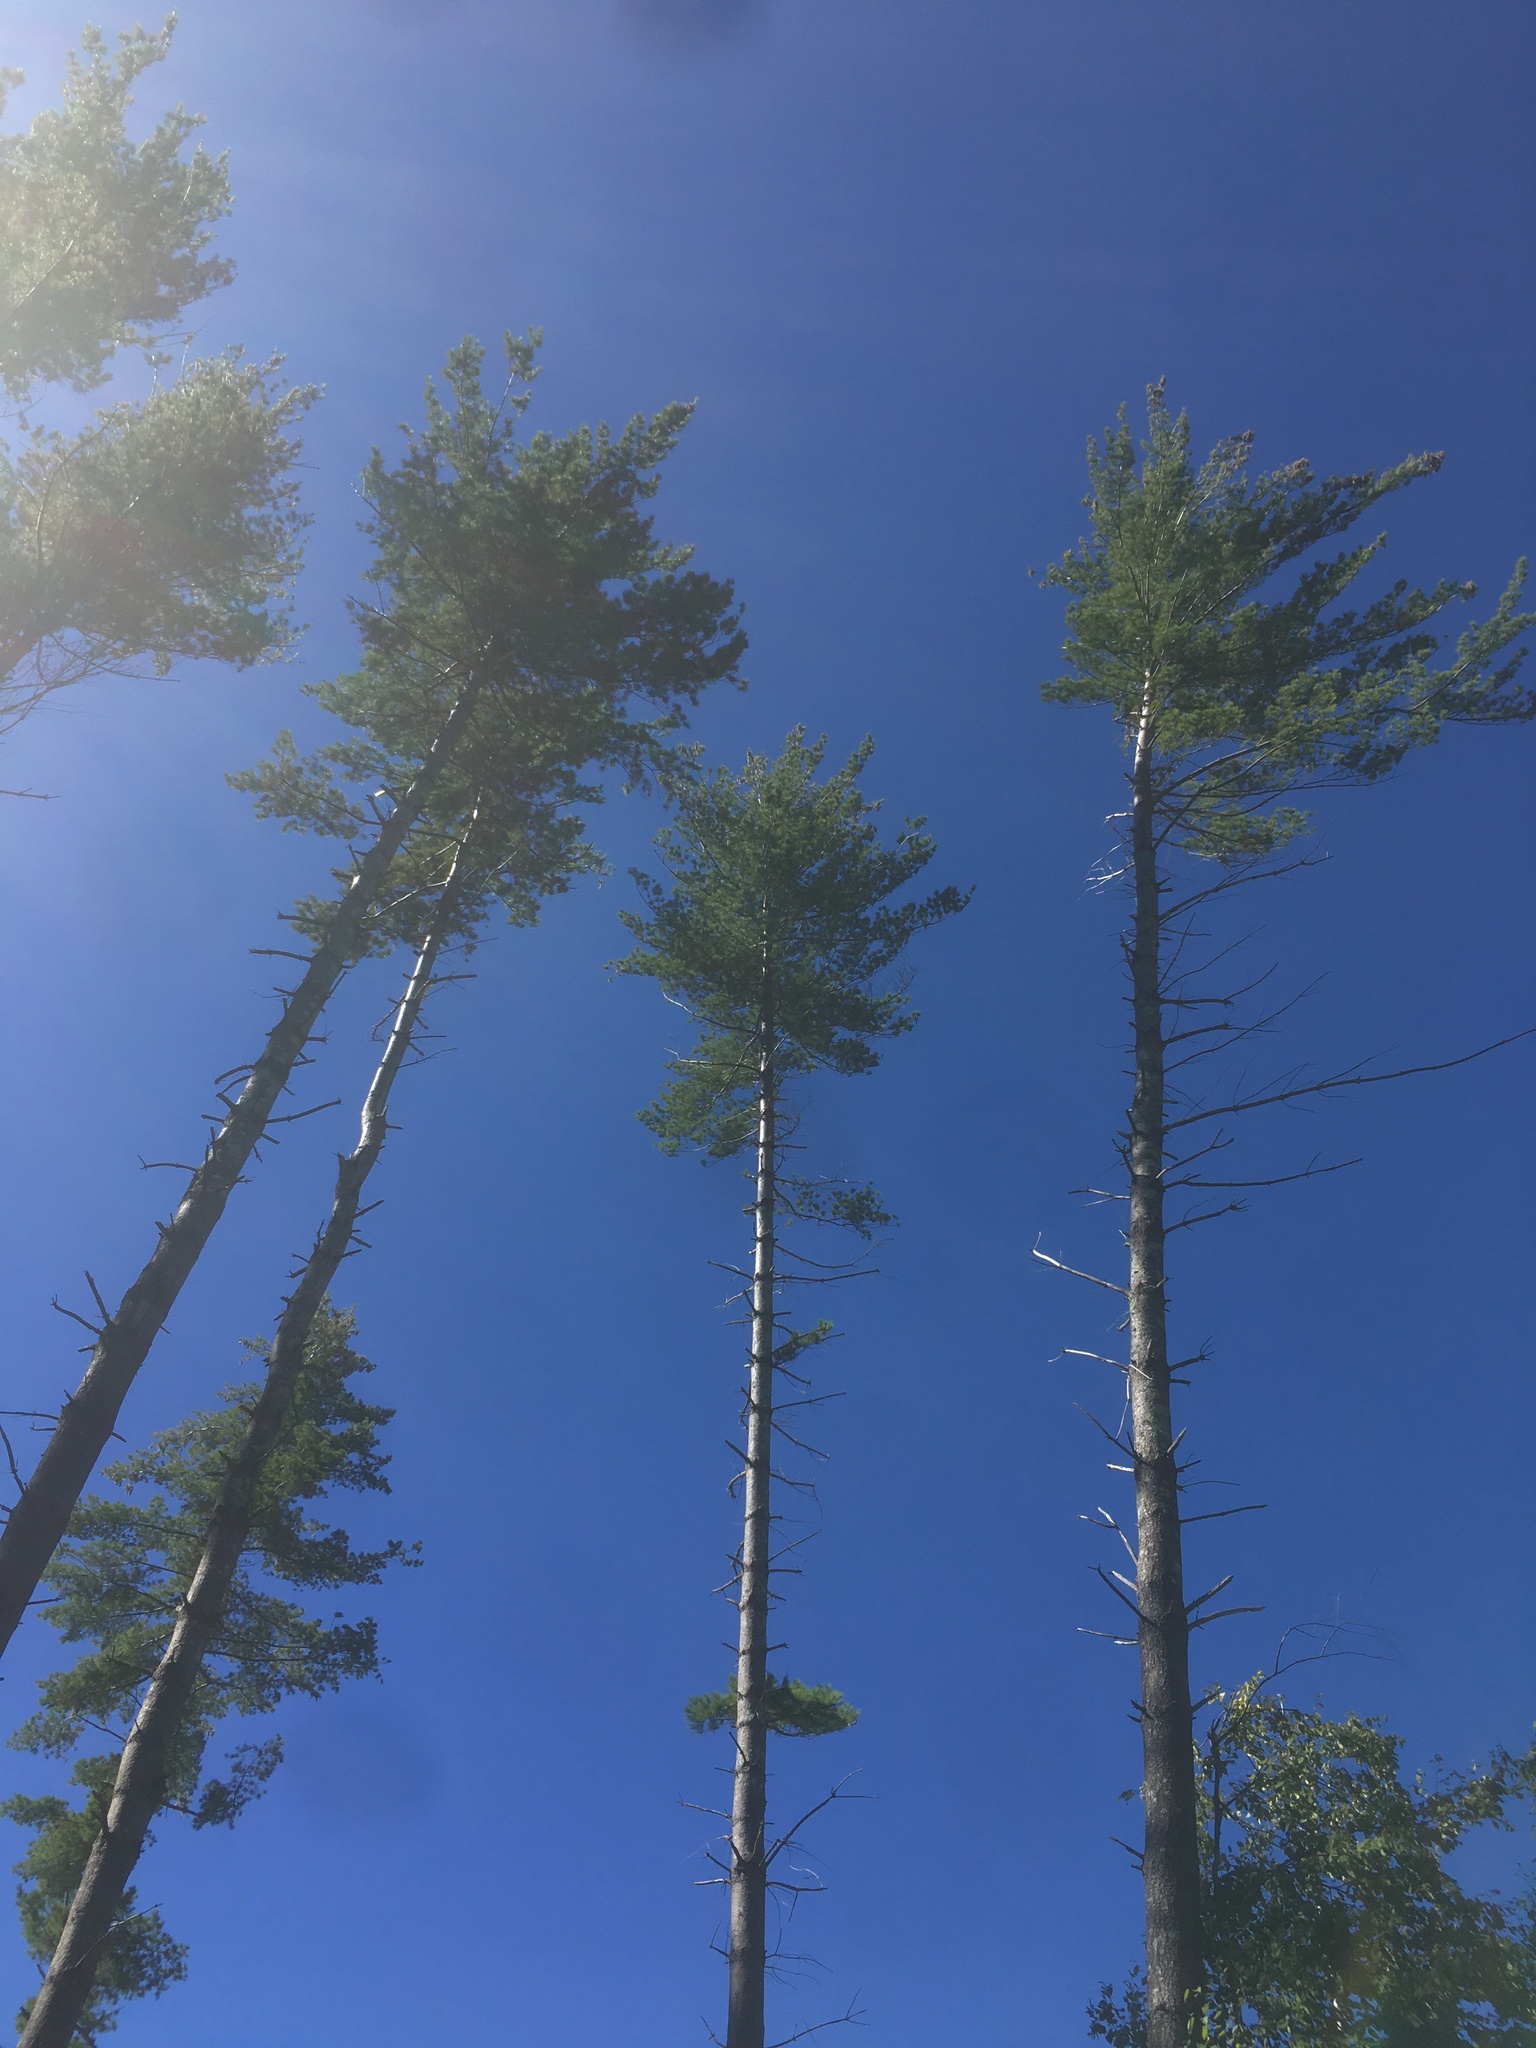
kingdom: Plantae
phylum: Tracheophyta
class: Pinopsida
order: Pinales
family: Pinaceae
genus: Pinus
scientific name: Pinus strobus
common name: Weymouth pine
